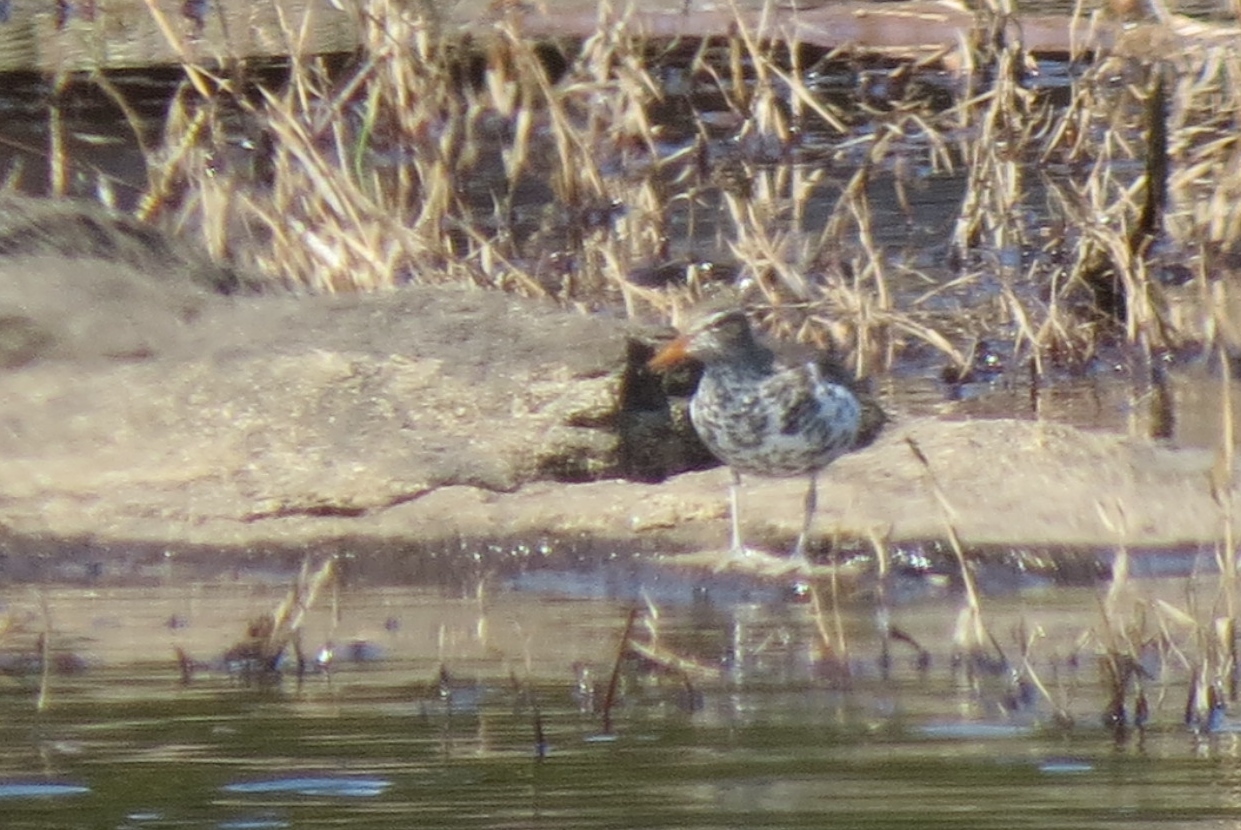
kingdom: Animalia
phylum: Chordata
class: Aves
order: Charadriiformes
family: Scolopacidae
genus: Actitis
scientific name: Actitis macularius
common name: Spotted sandpiper
